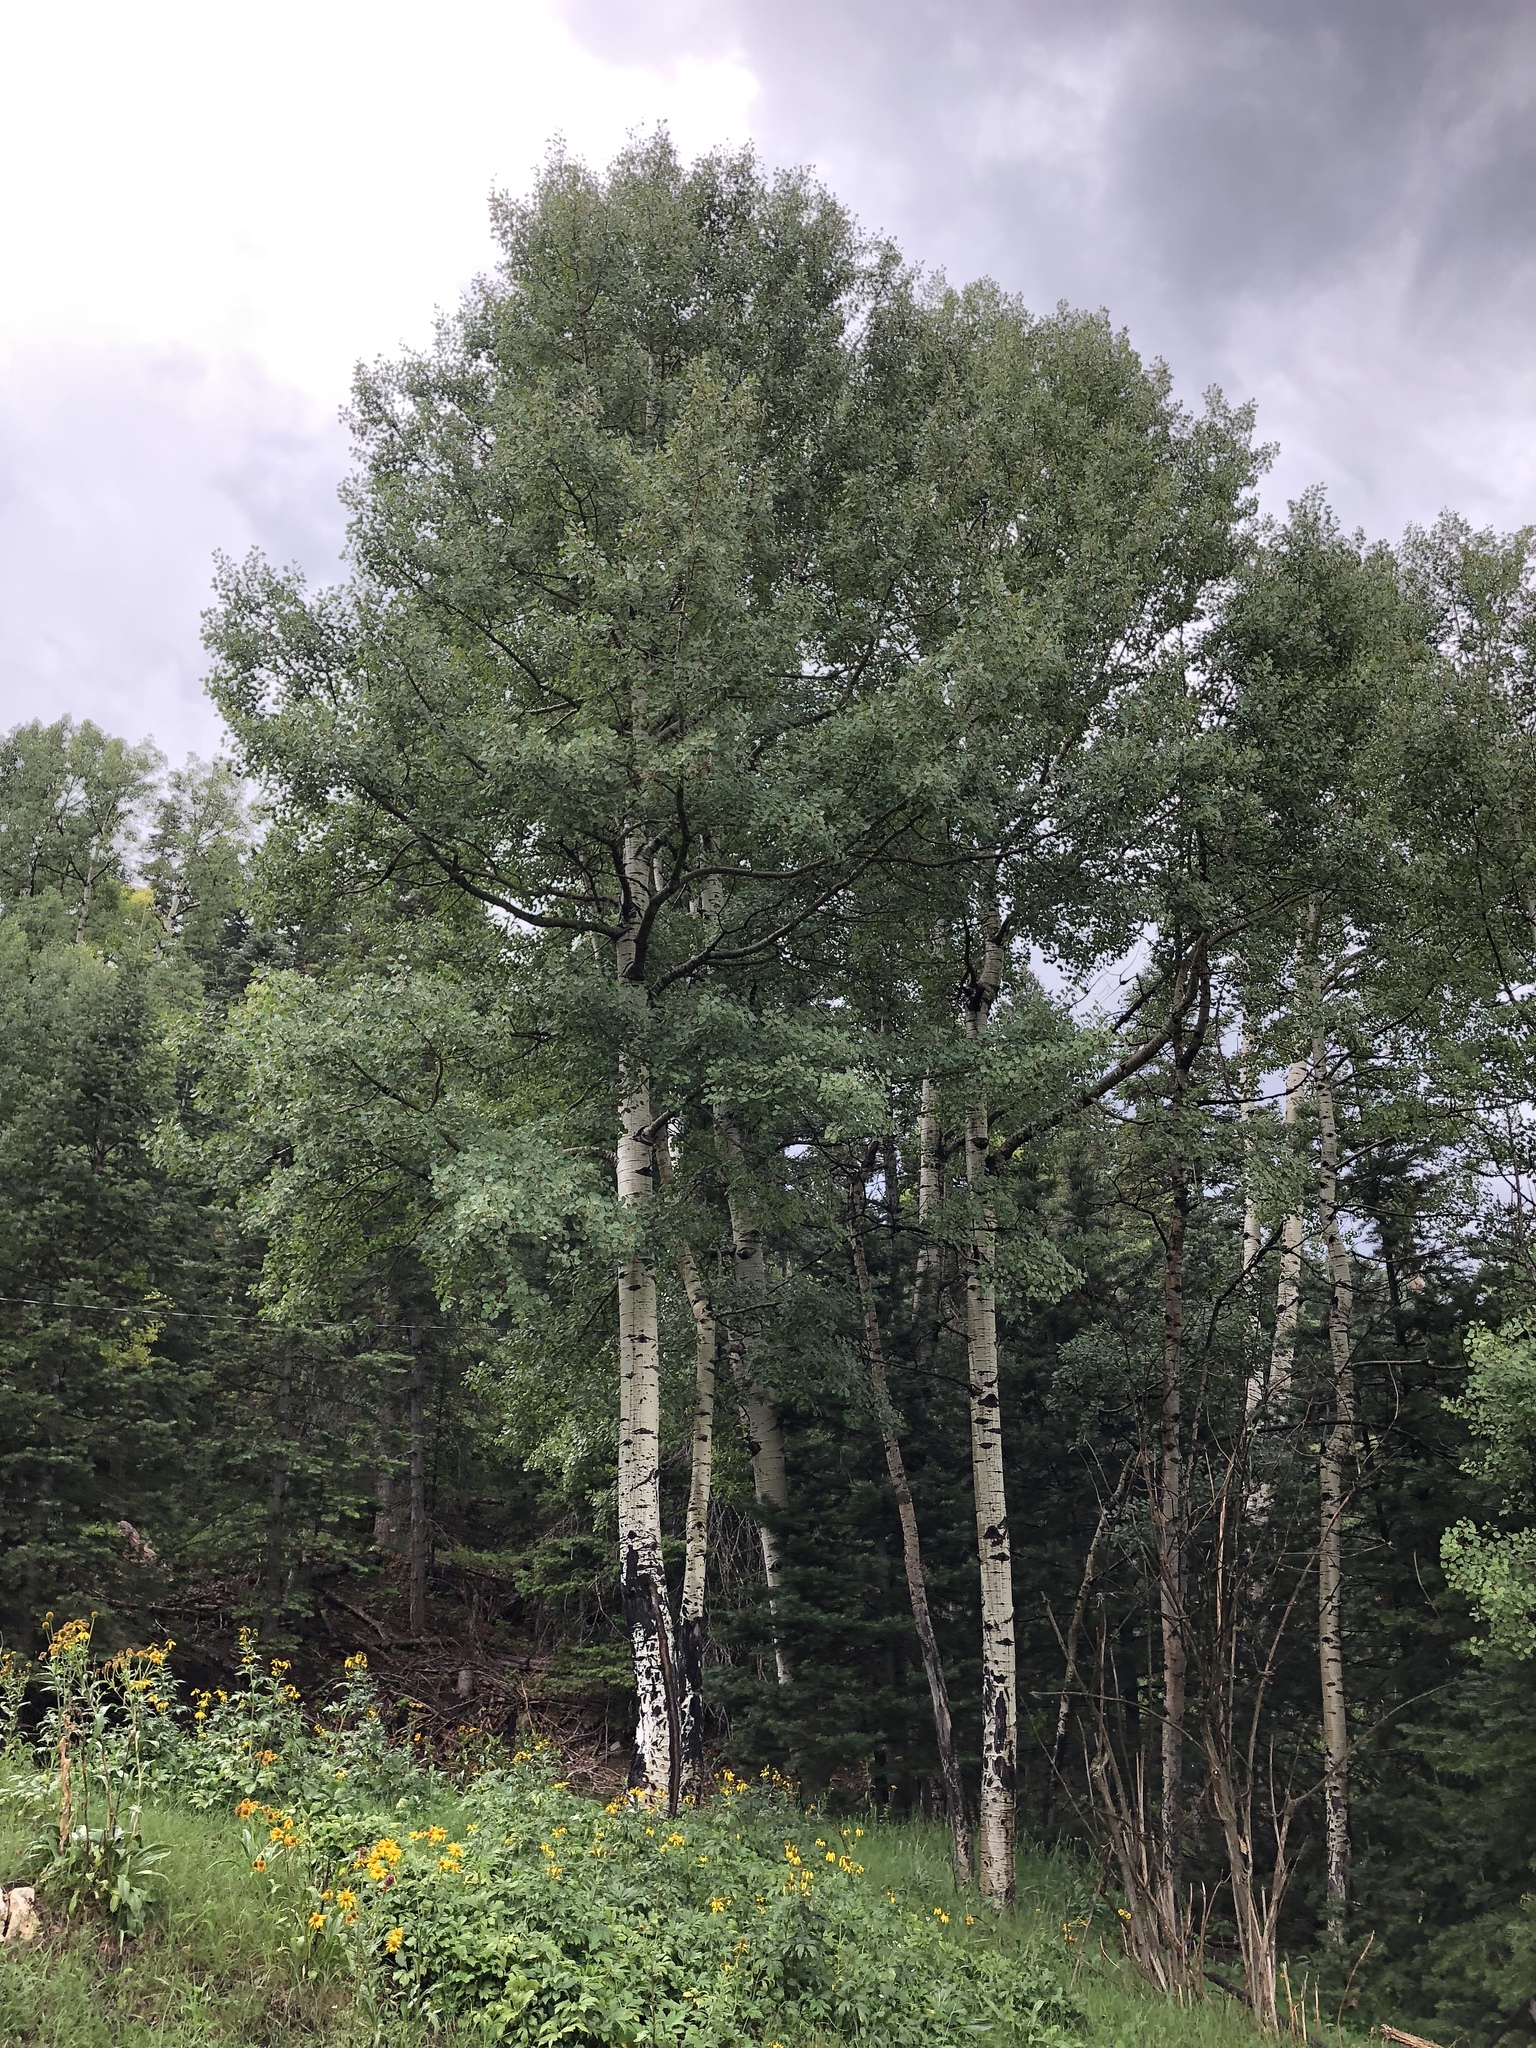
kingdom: Plantae
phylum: Tracheophyta
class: Magnoliopsida
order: Malpighiales
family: Salicaceae
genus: Populus
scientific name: Populus tremuloides
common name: Quaking aspen
